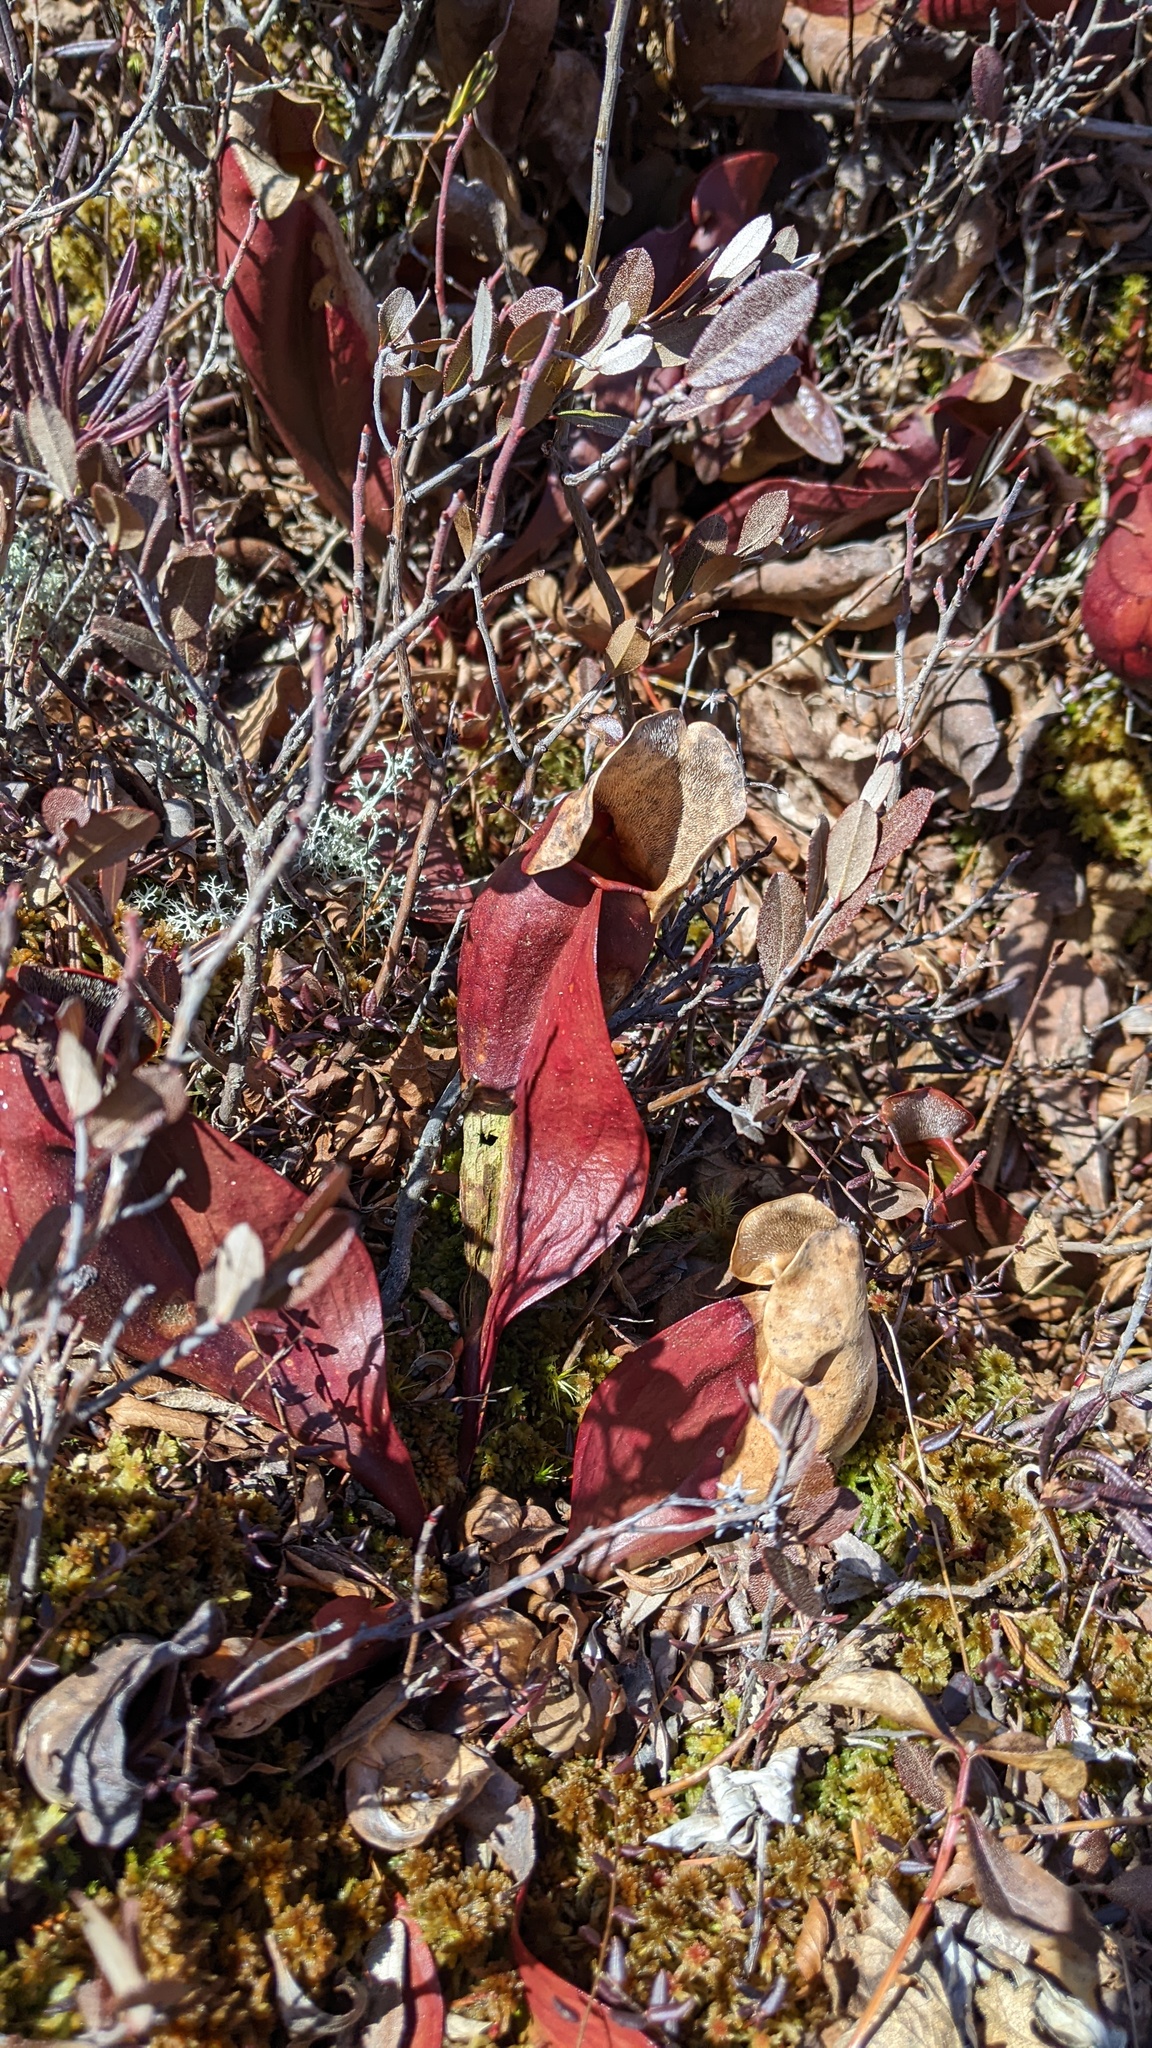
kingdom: Plantae
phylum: Tracheophyta
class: Magnoliopsida
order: Ericales
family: Sarraceniaceae
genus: Sarracenia
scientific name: Sarracenia purpurea
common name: Pitcherplant
